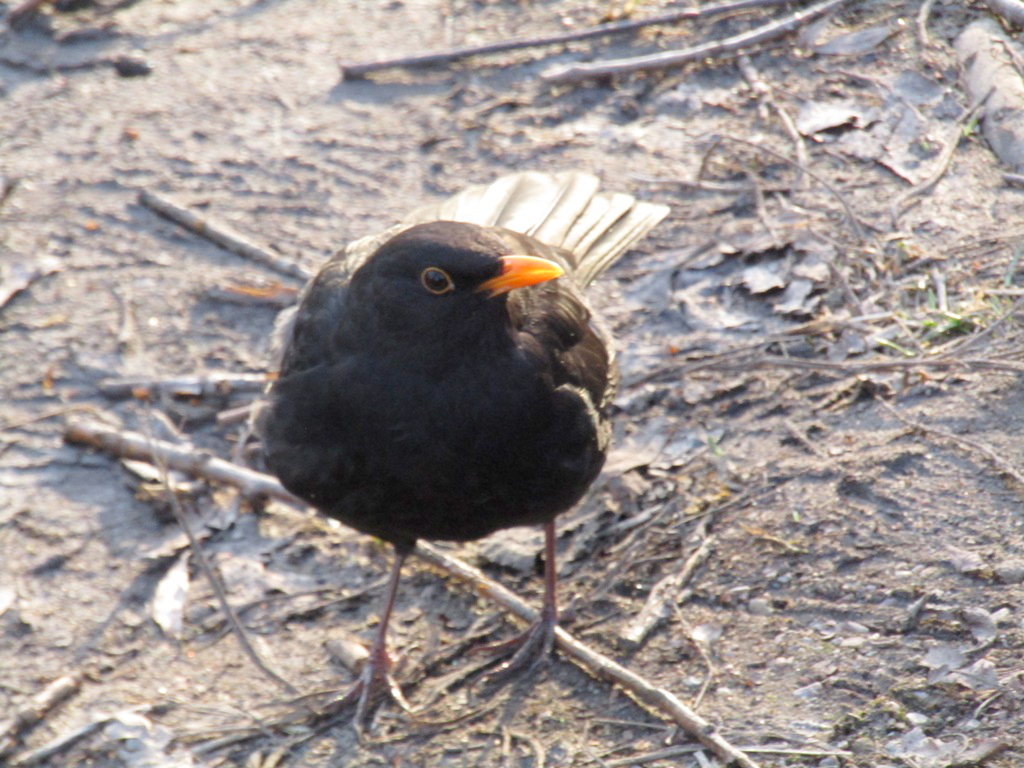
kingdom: Animalia
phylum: Chordata
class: Aves
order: Passeriformes
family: Turdidae
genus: Turdus
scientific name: Turdus merula
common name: Common blackbird
